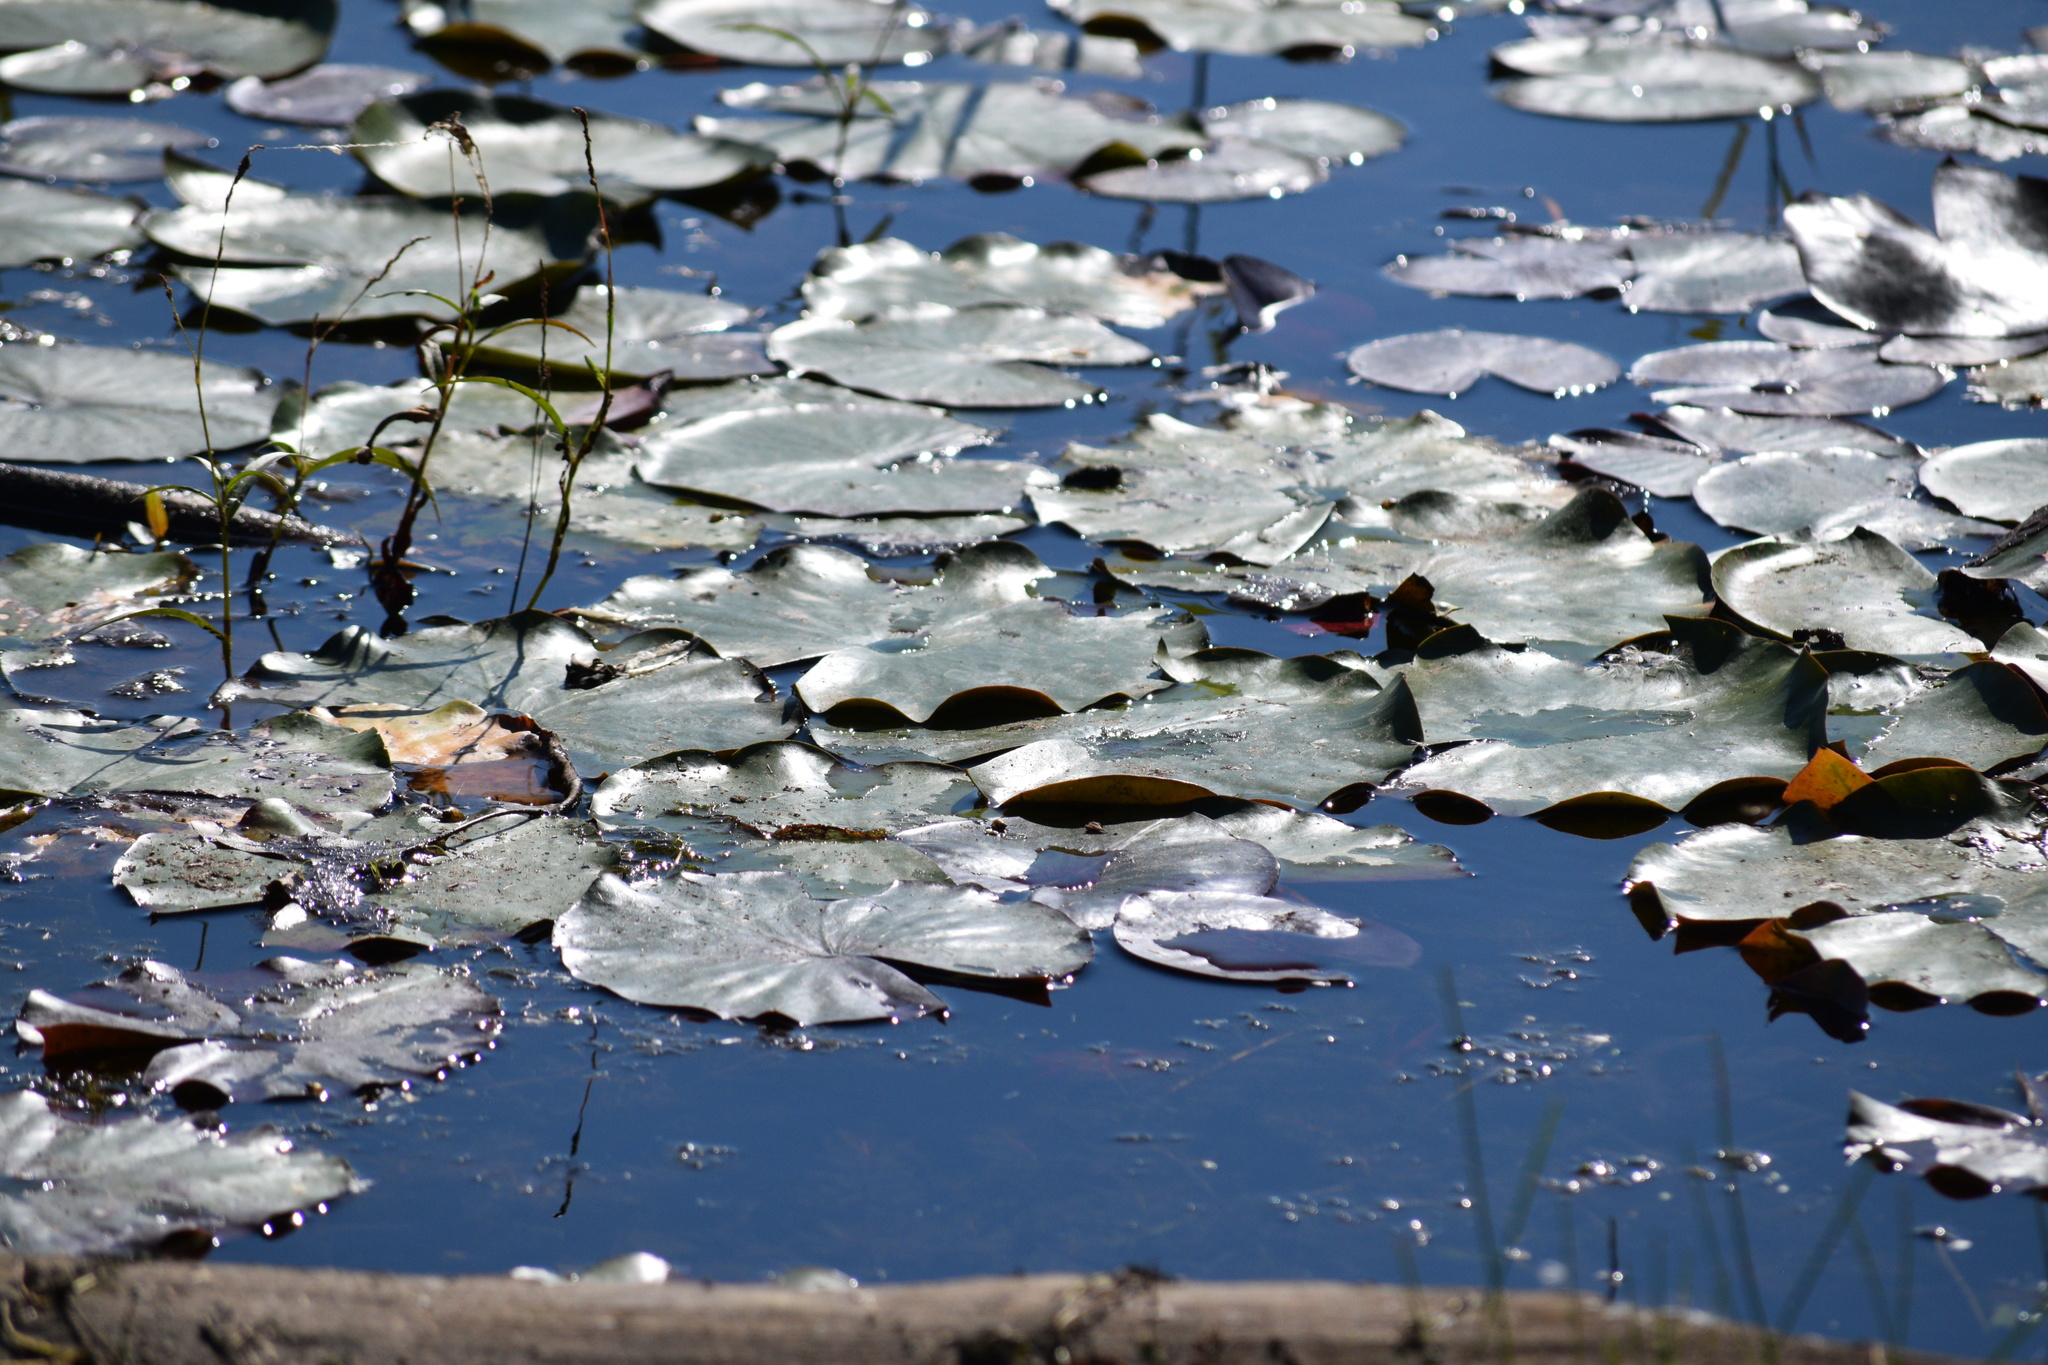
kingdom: Plantae
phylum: Tracheophyta
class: Magnoliopsida
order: Nymphaeales
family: Nymphaeaceae
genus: Nymphaea
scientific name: Nymphaea odorata
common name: Fragrant water-lily
